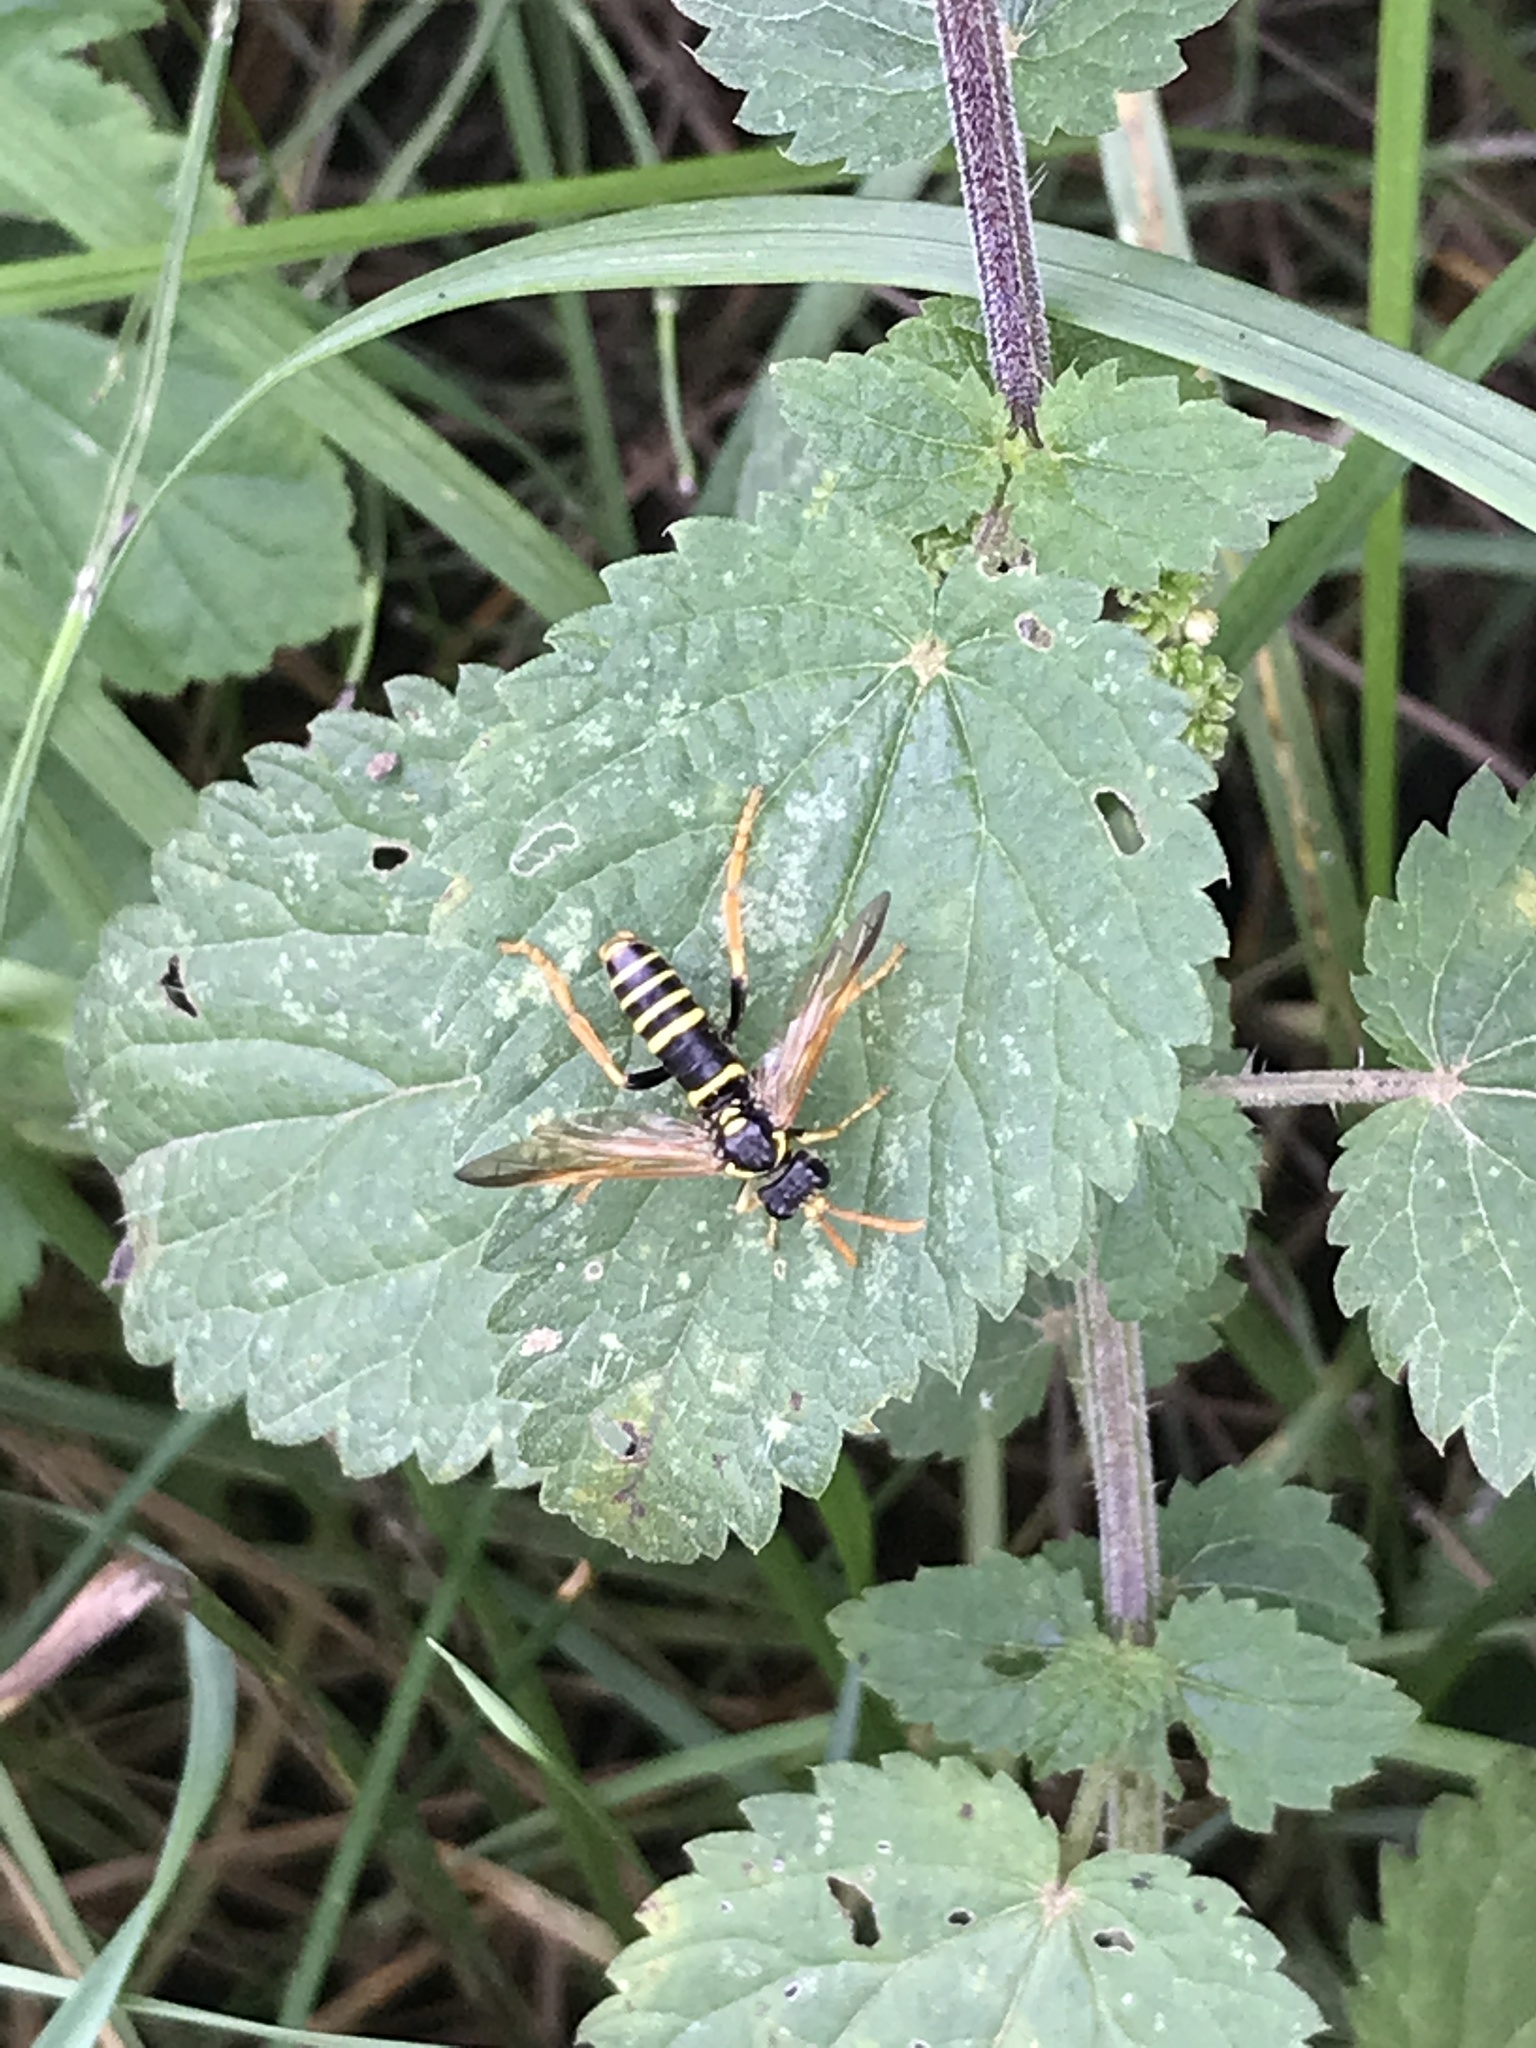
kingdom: Animalia
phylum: Arthropoda
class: Insecta
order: Hymenoptera
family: Tenthredinidae
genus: Tenthredo
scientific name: Tenthredo scrophulariae
